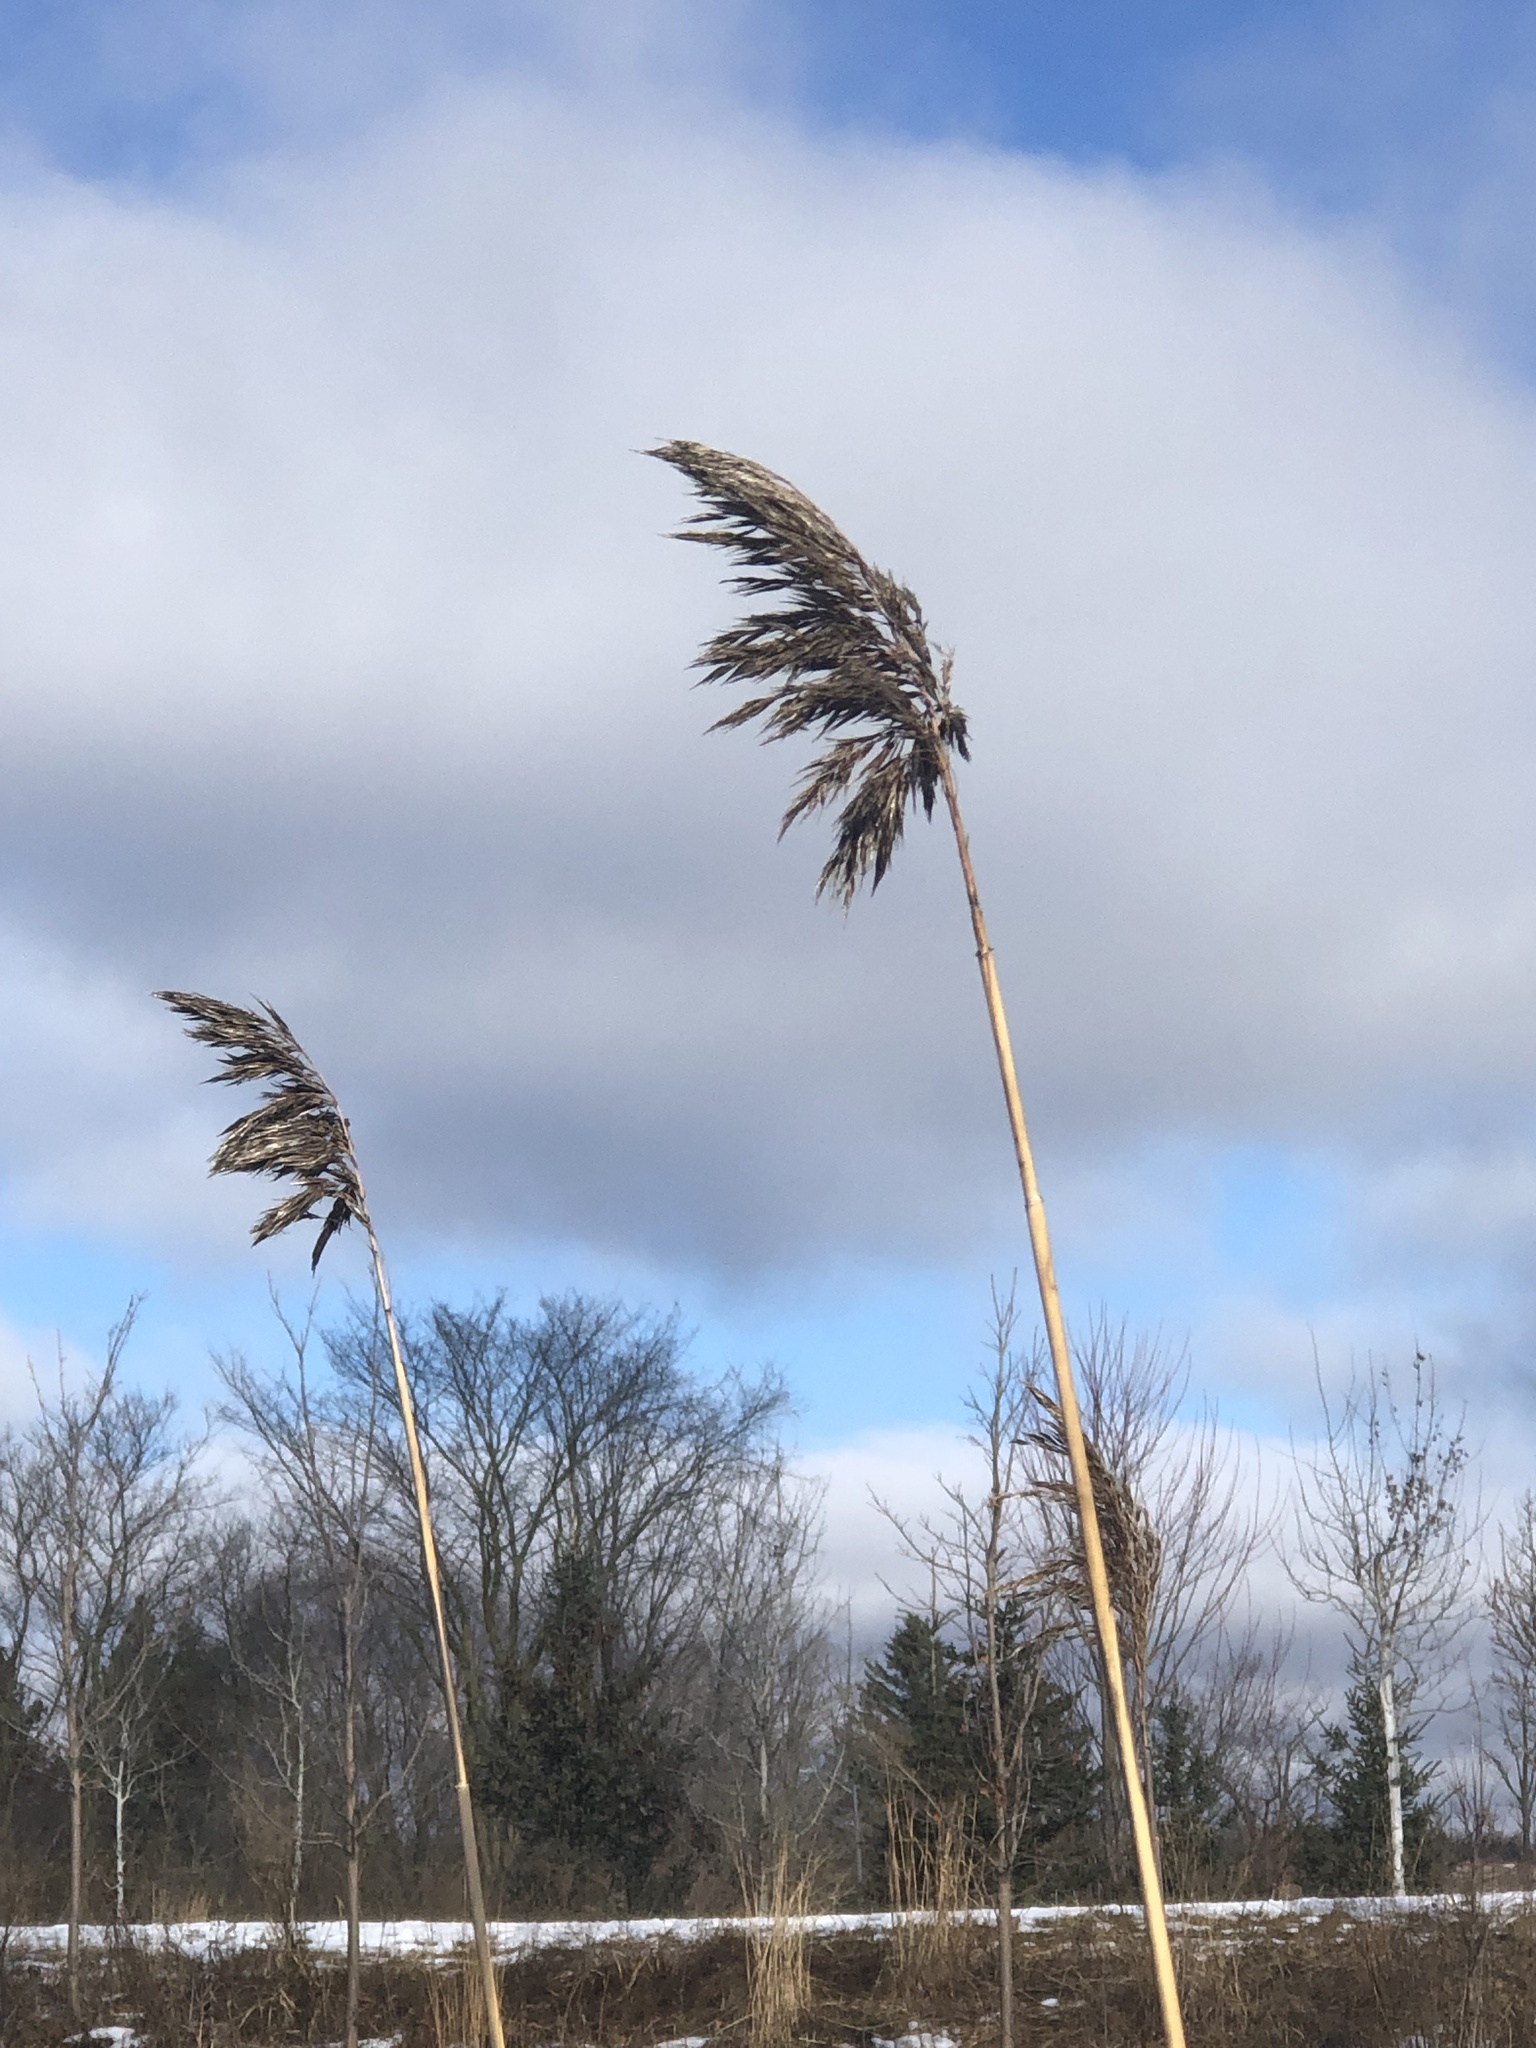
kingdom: Plantae
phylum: Tracheophyta
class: Liliopsida
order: Poales
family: Poaceae
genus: Phragmites
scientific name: Phragmites australis
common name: Common reed
